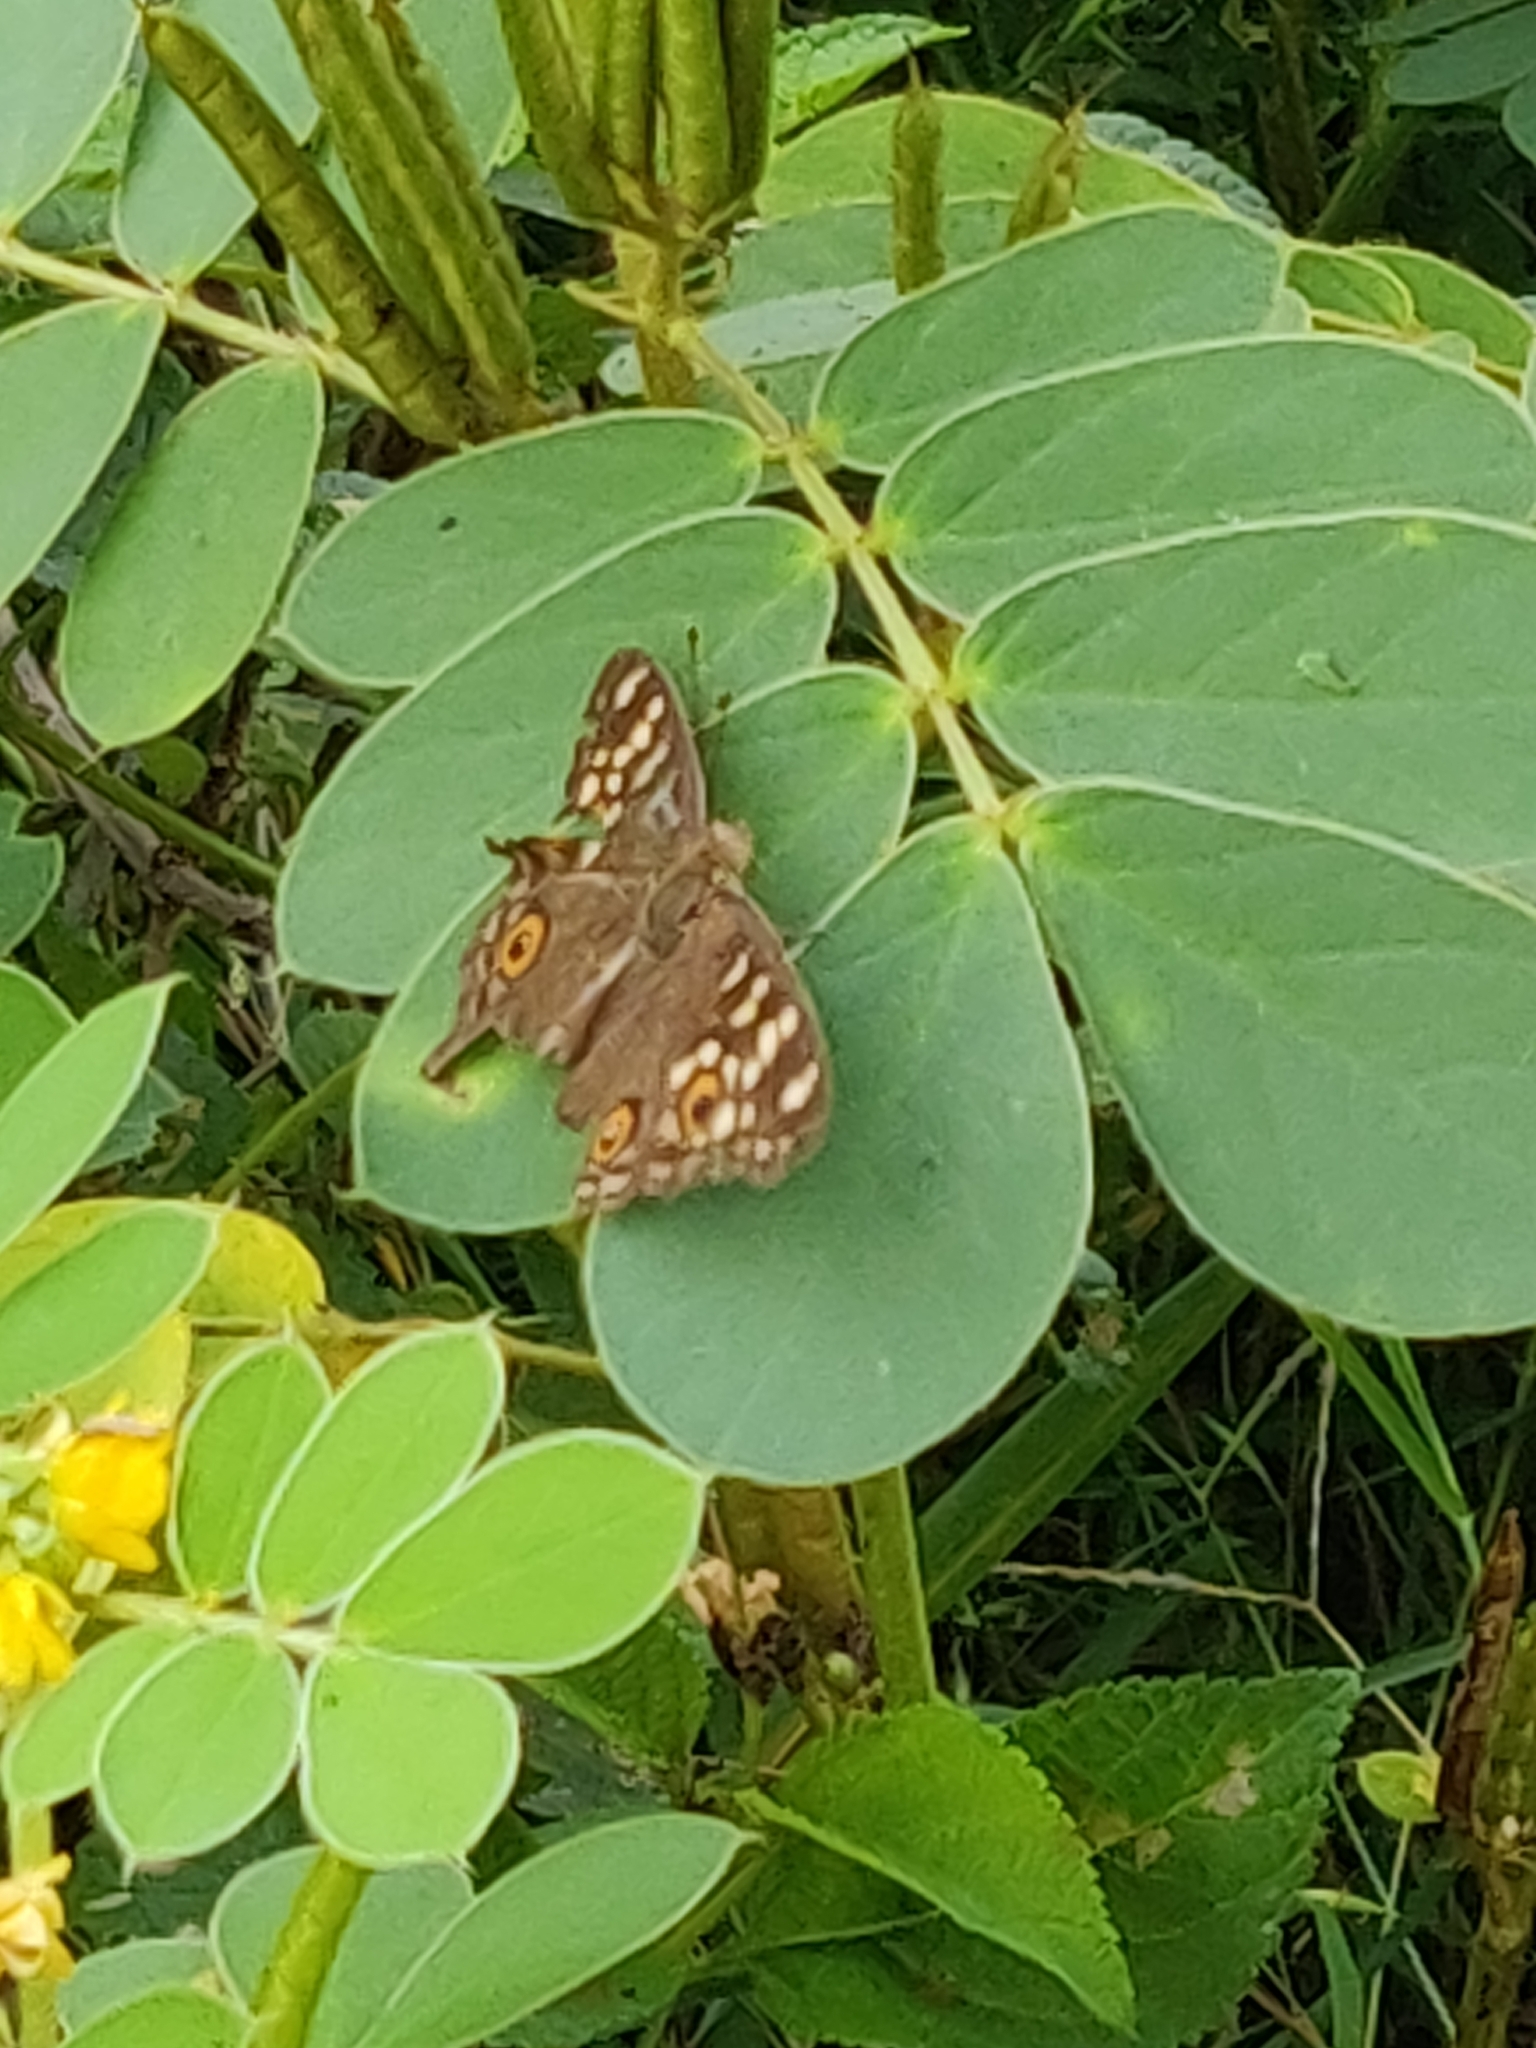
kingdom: Animalia
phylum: Arthropoda
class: Insecta
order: Lepidoptera
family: Nymphalidae
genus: Junonia
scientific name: Junonia lemonias
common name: Lemon pansy
